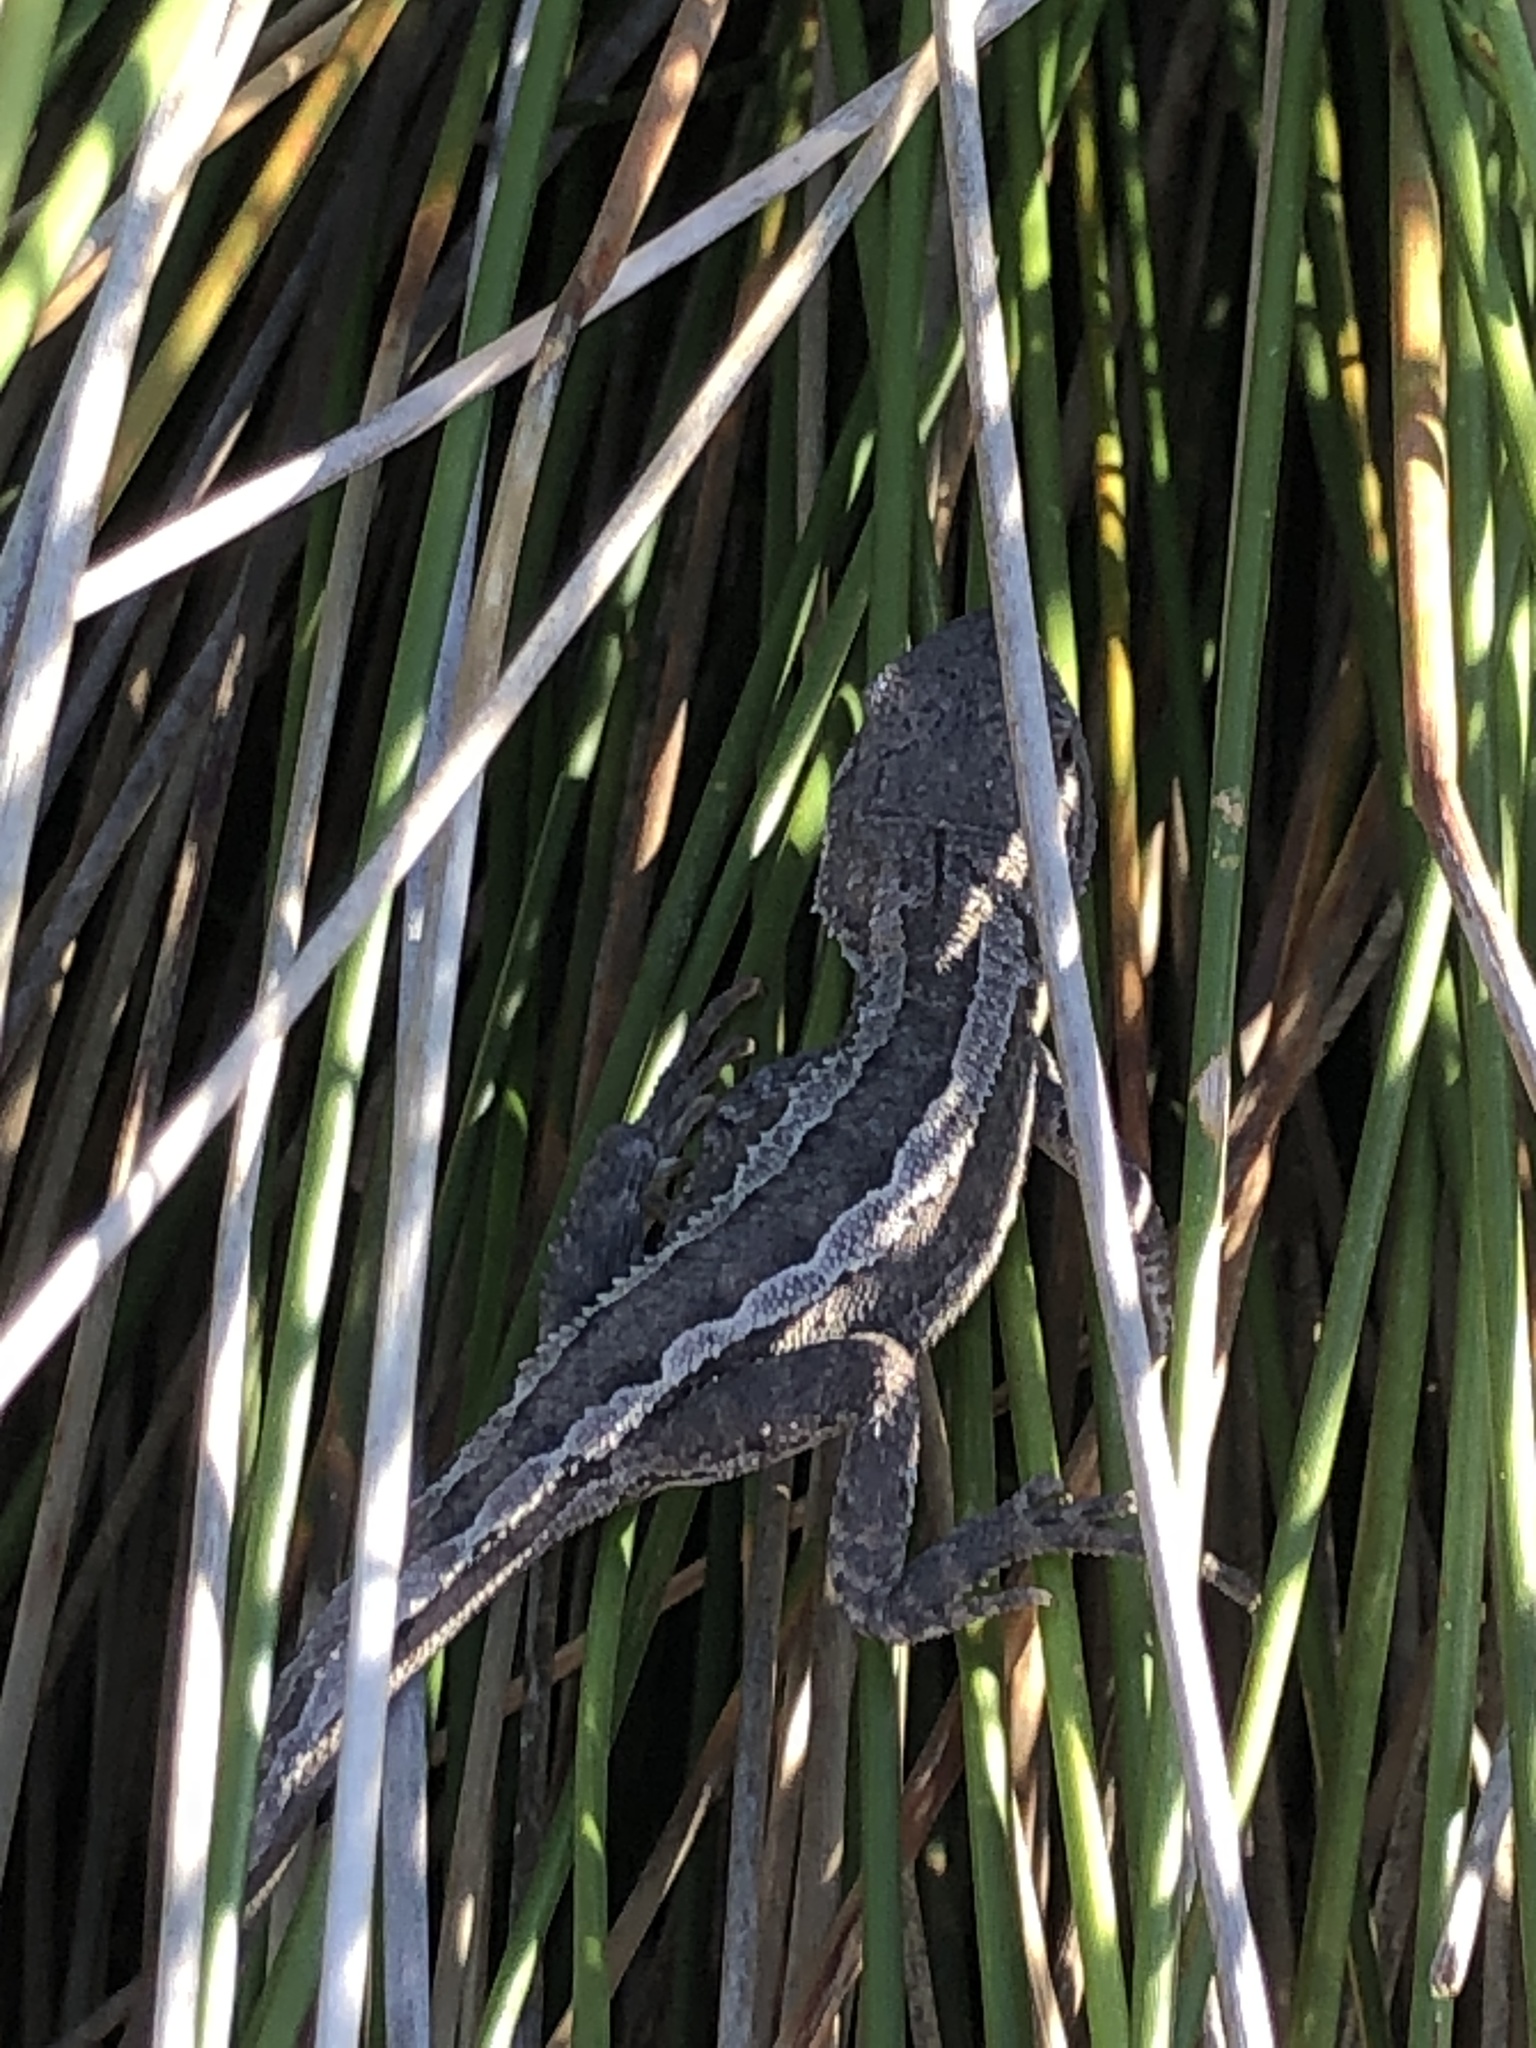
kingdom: Animalia
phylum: Chordata
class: Squamata
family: Agamidae
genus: Amphibolurus
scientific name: Amphibolurus muricatus
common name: Jacky lizard
